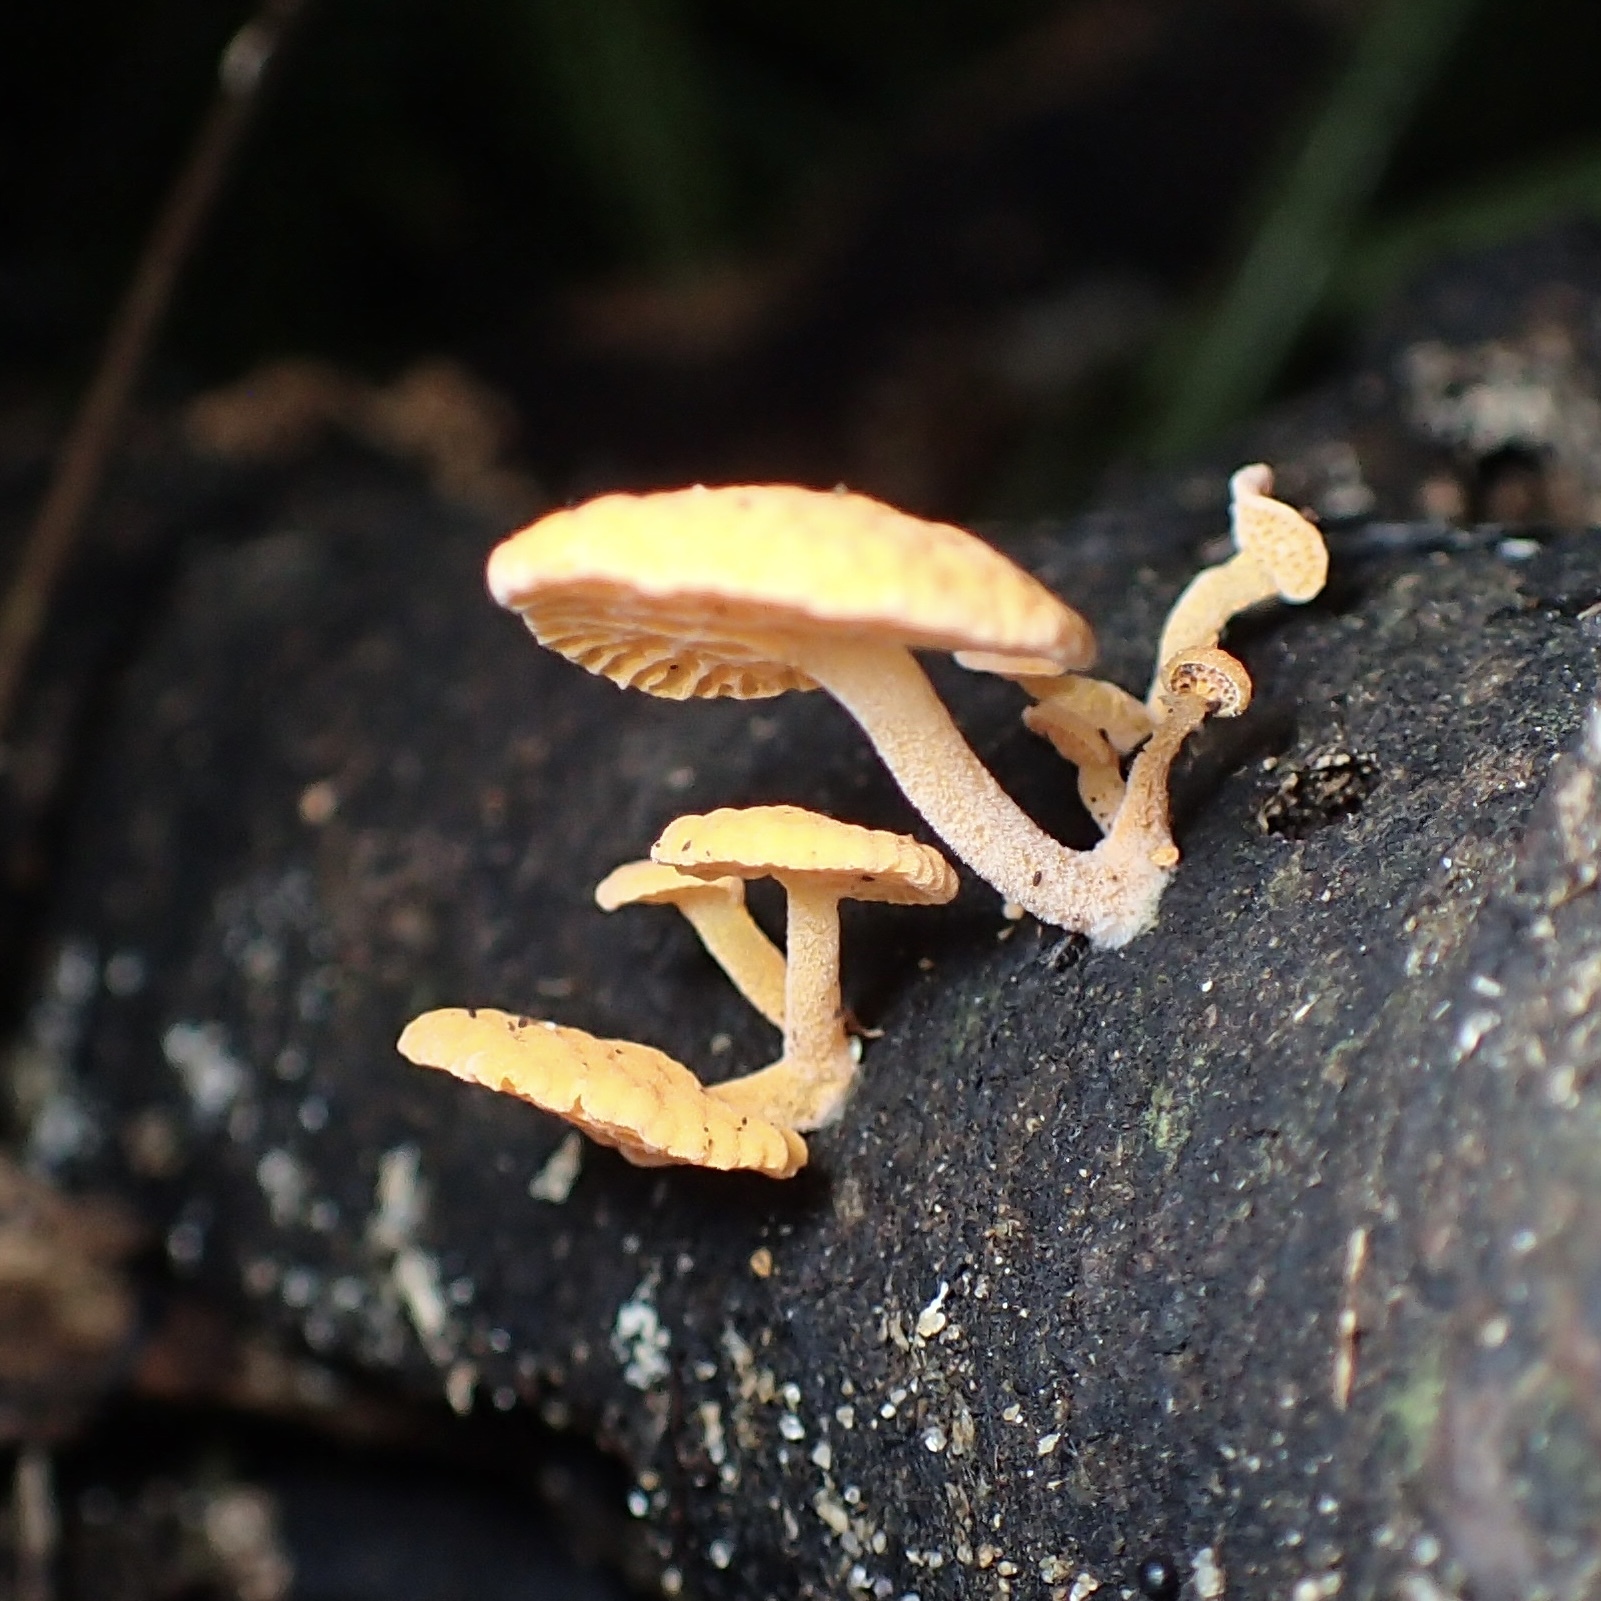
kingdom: Fungi
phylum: Basidiomycota
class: Agaricomycetes
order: Agaricales
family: Mycenaceae
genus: Favolaschia
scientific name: Favolaschia claudopus
